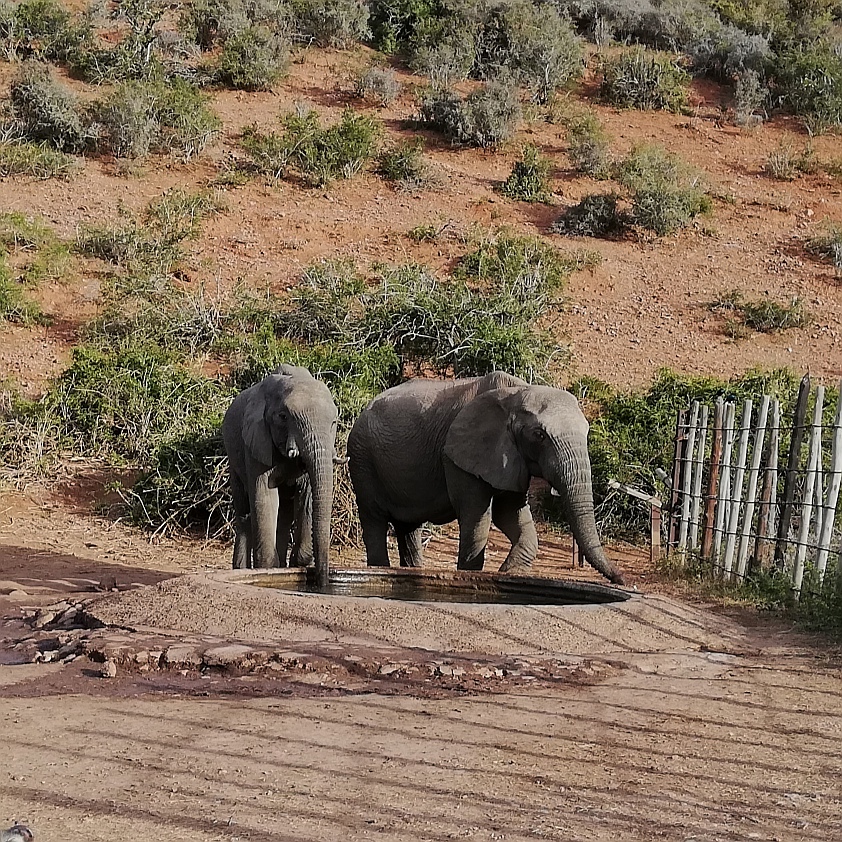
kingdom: Animalia
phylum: Chordata
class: Mammalia
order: Proboscidea
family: Elephantidae
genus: Loxodonta
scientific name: Loxodonta africana
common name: African elephant
